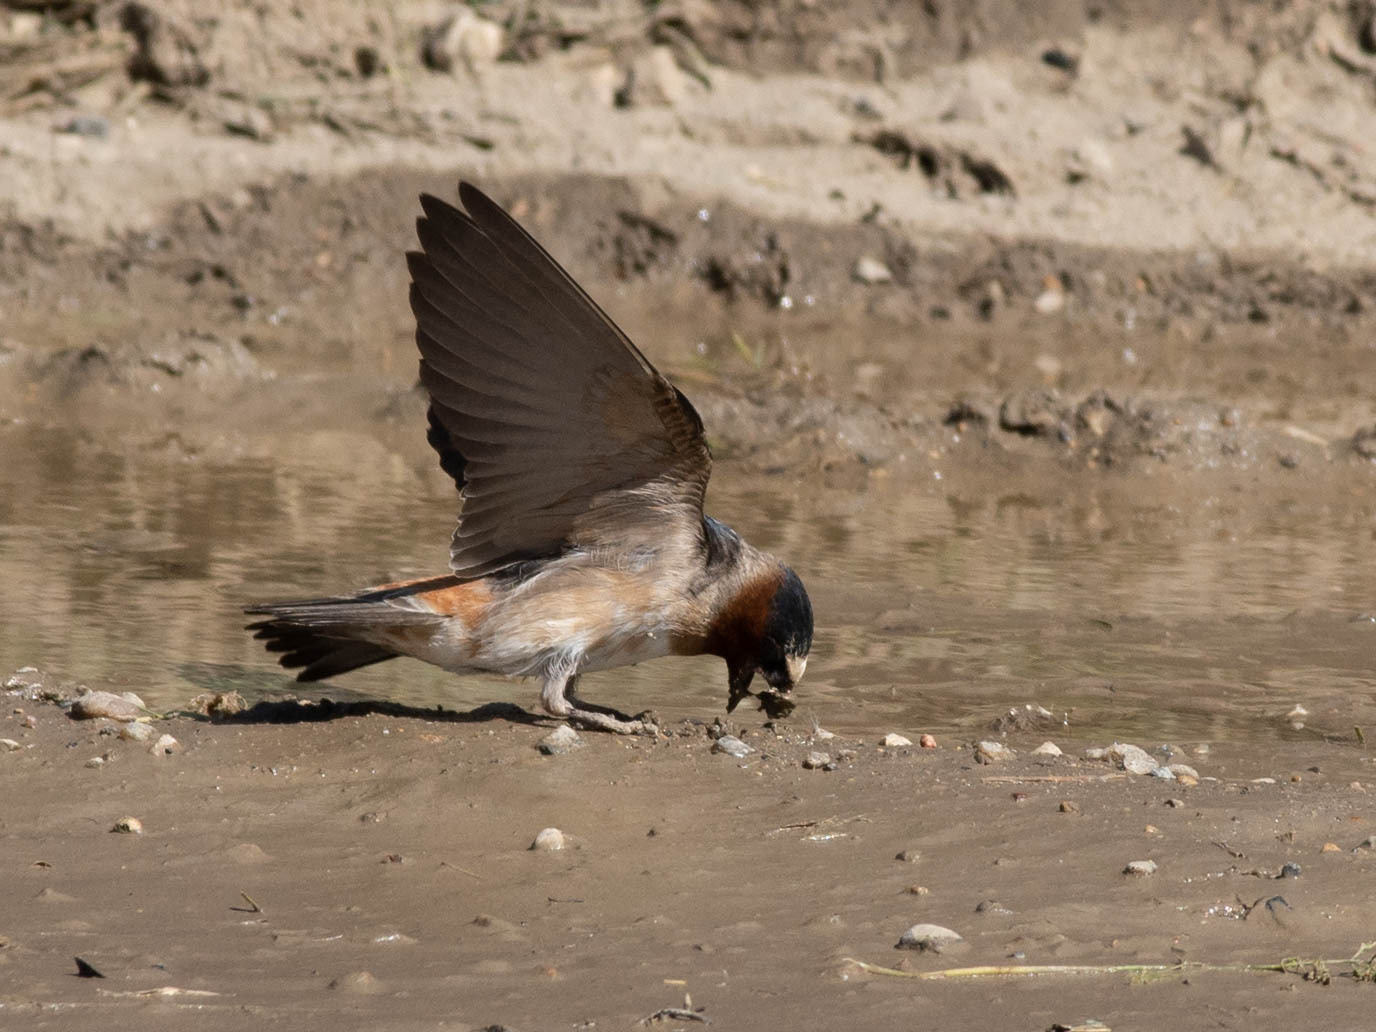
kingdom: Animalia
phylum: Chordata
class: Aves
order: Passeriformes
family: Hirundinidae
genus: Petrochelidon
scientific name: Petrochelidon pyrrhonota
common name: American cliff swallow
